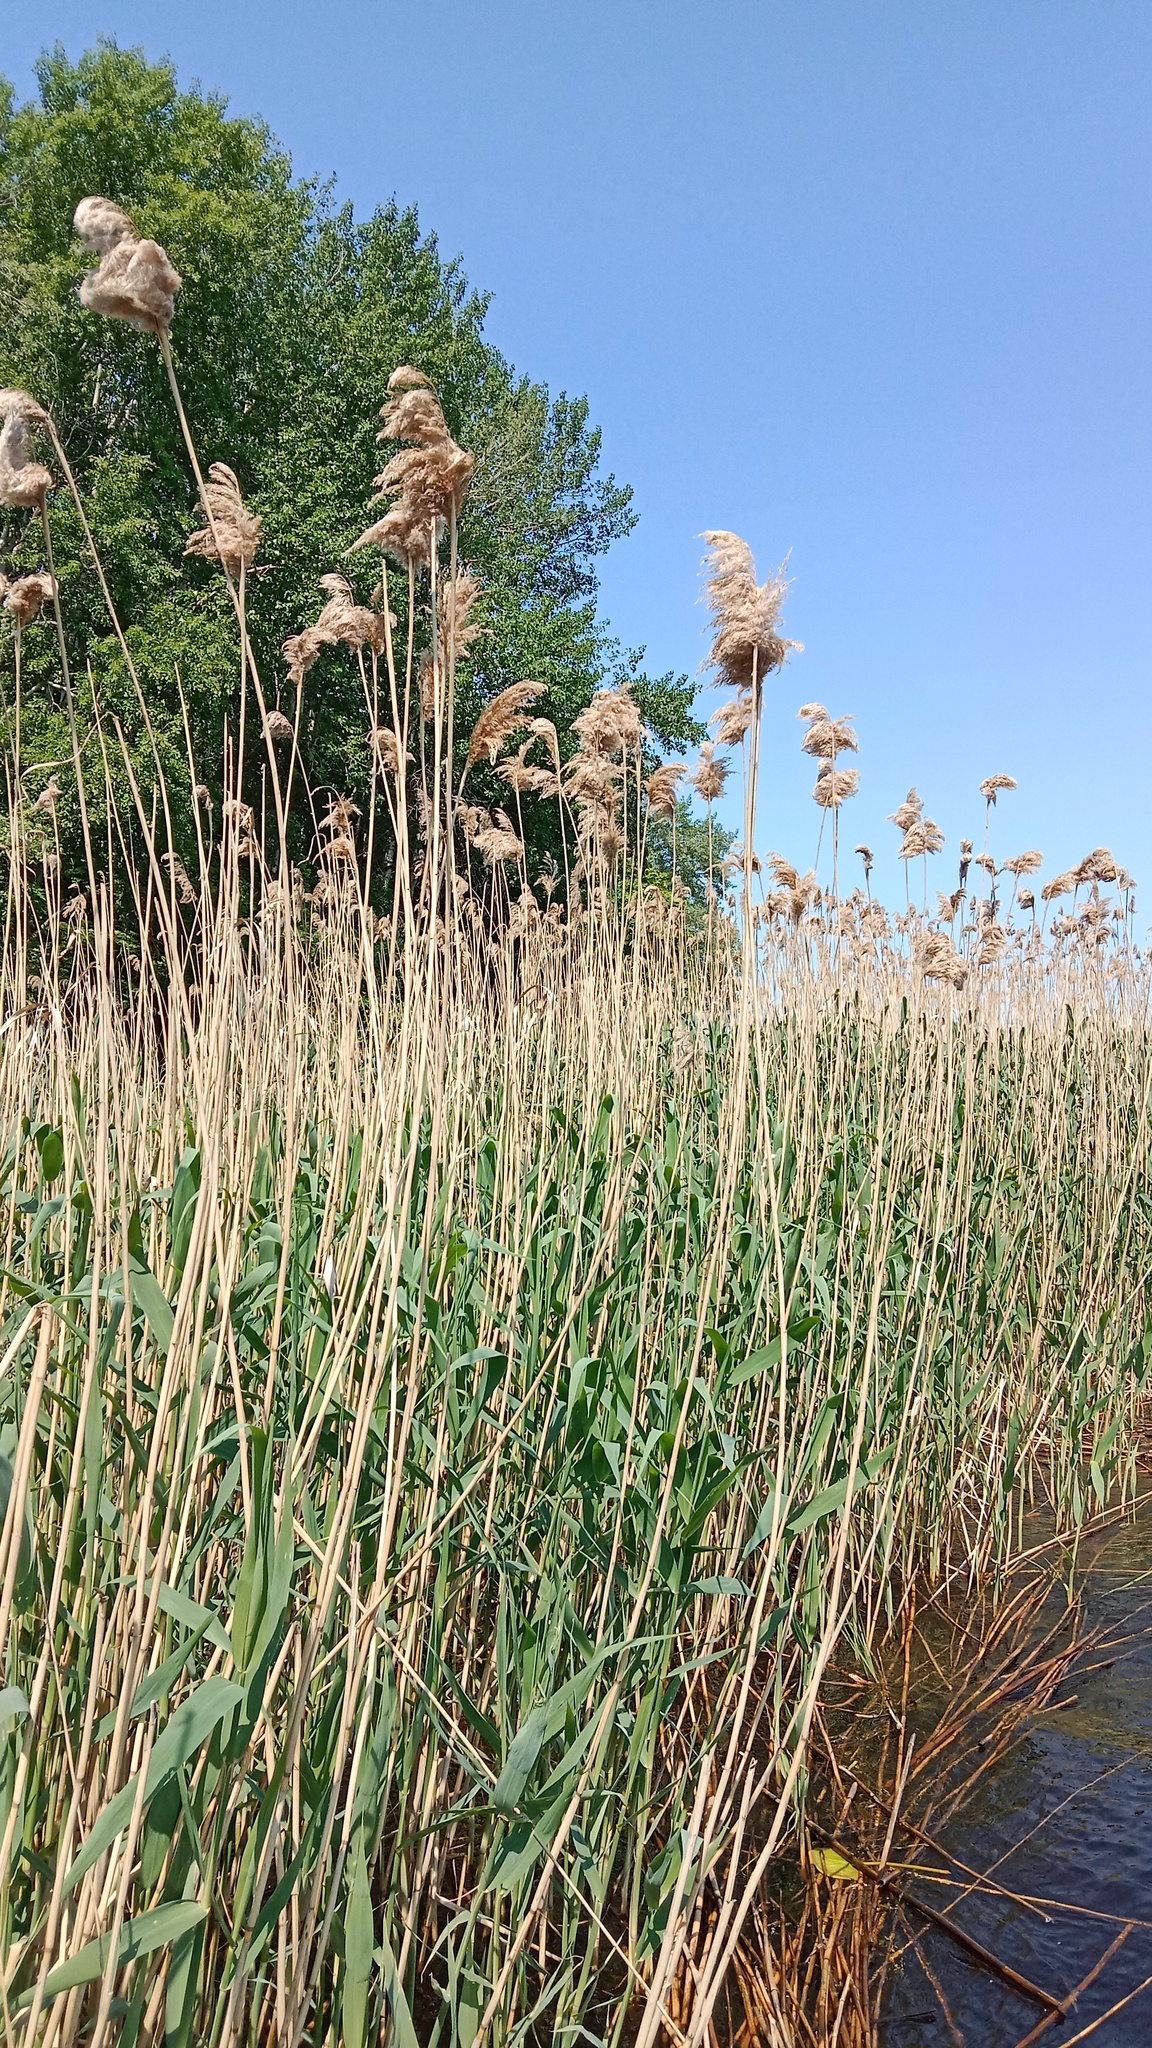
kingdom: Plantae
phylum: Tracheophyta
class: Liliopsida
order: Poales
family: Poaceae
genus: Phragmites
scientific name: Phragmites australis
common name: Common reed
